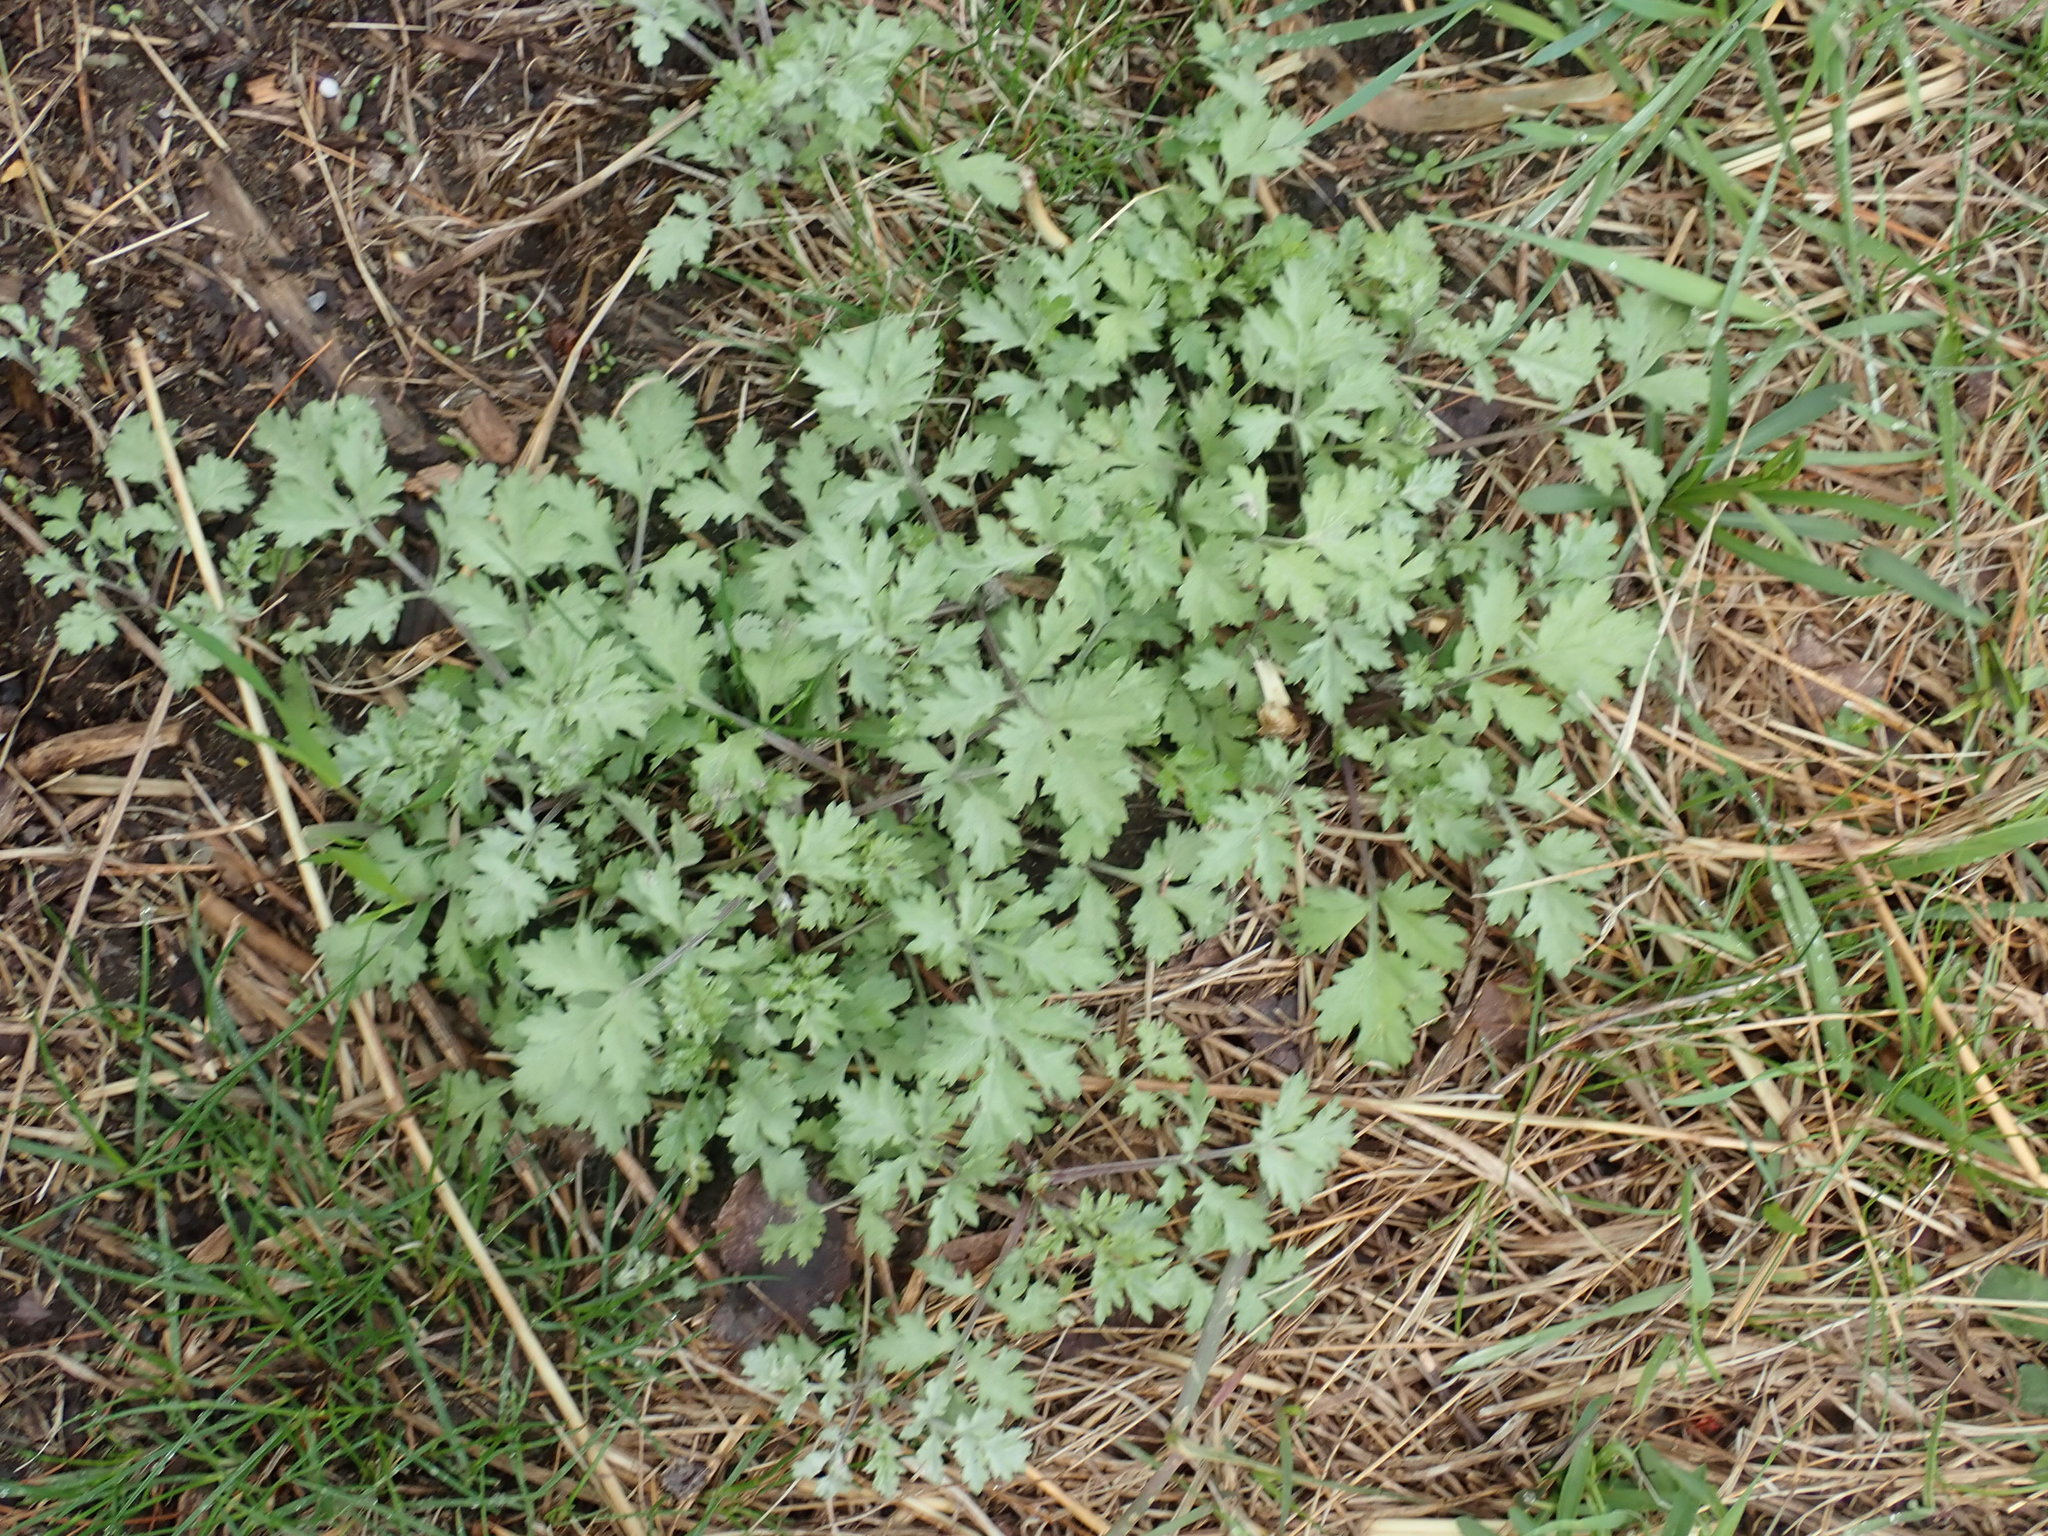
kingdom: Plantae
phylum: Tracheophyta
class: Magnoliopsida
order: Asterales
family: Asteraceae
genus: Artemisia
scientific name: Artemisia vulgaris
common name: Mugwort
